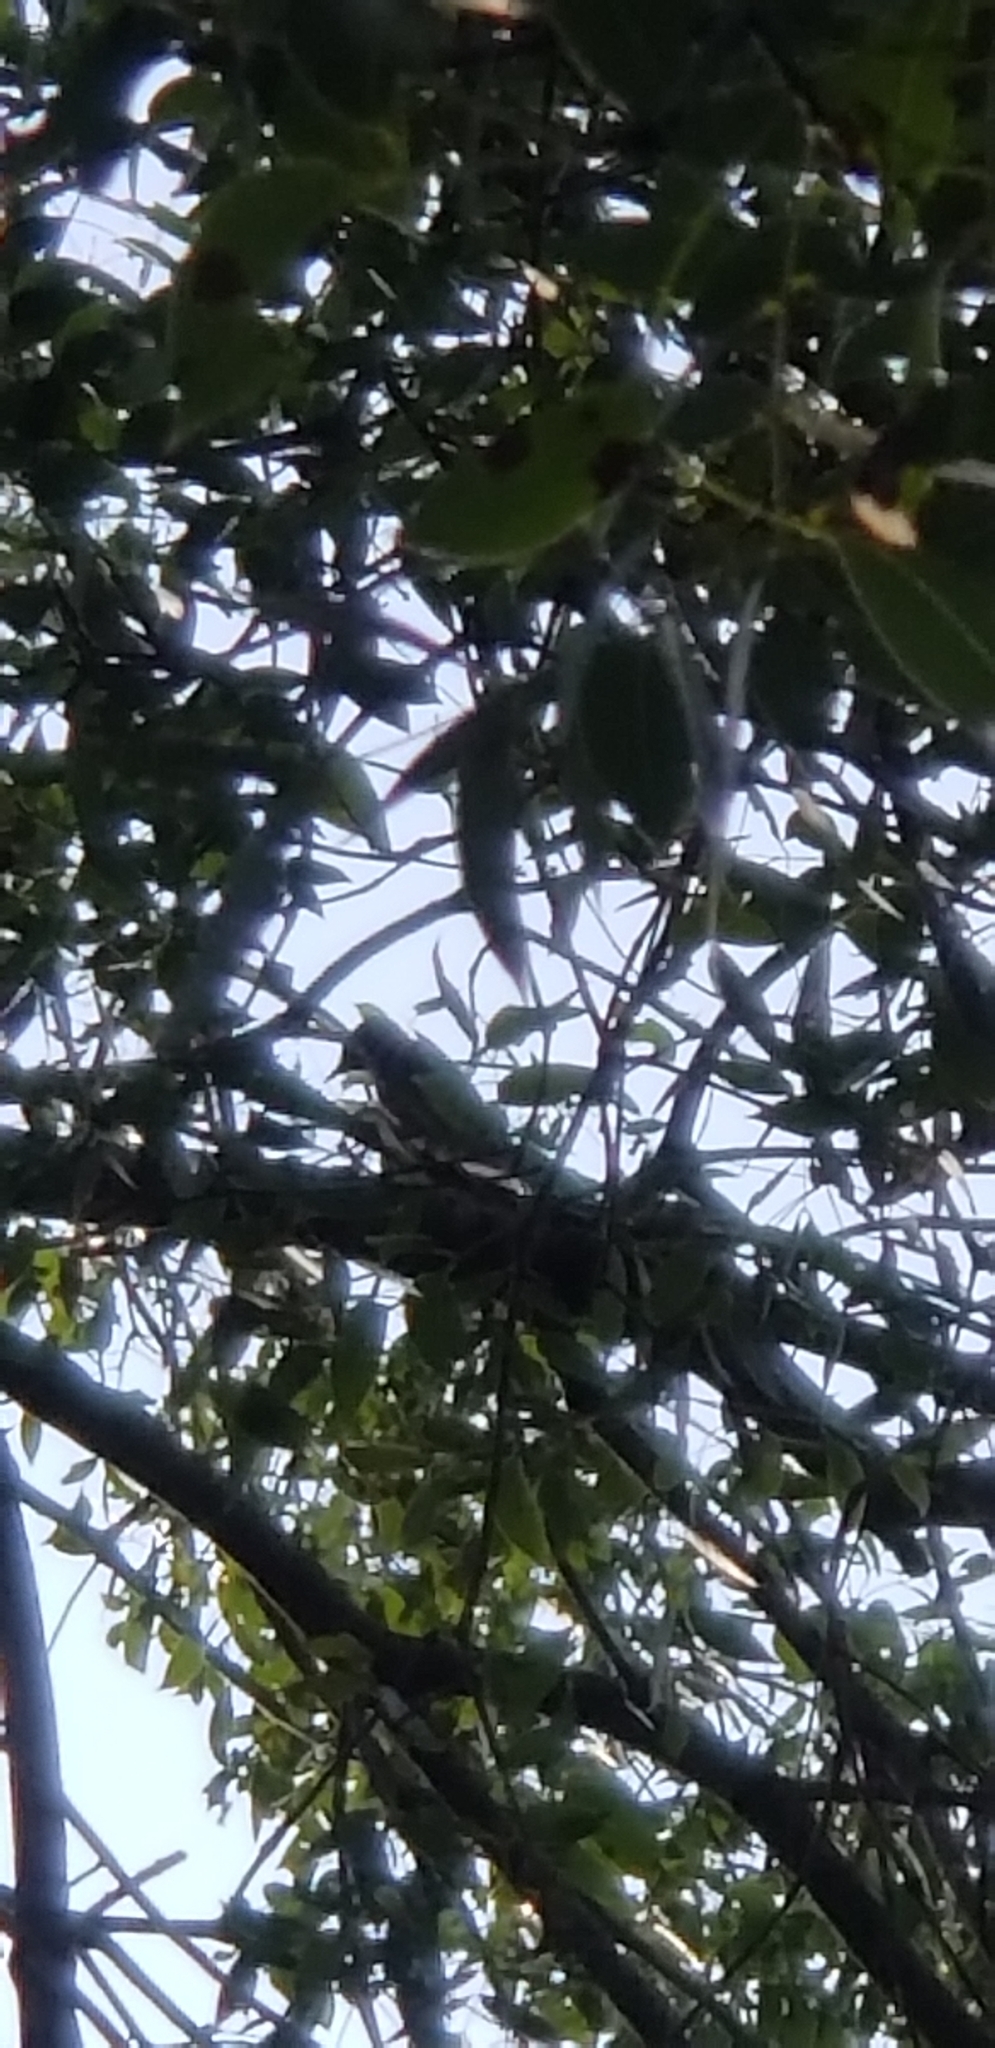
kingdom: Animalia
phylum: Chordata
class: Aves
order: Piciformes
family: Picidae
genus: Dryobates
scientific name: Dryobates pubescens
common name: Downy woodpecker
